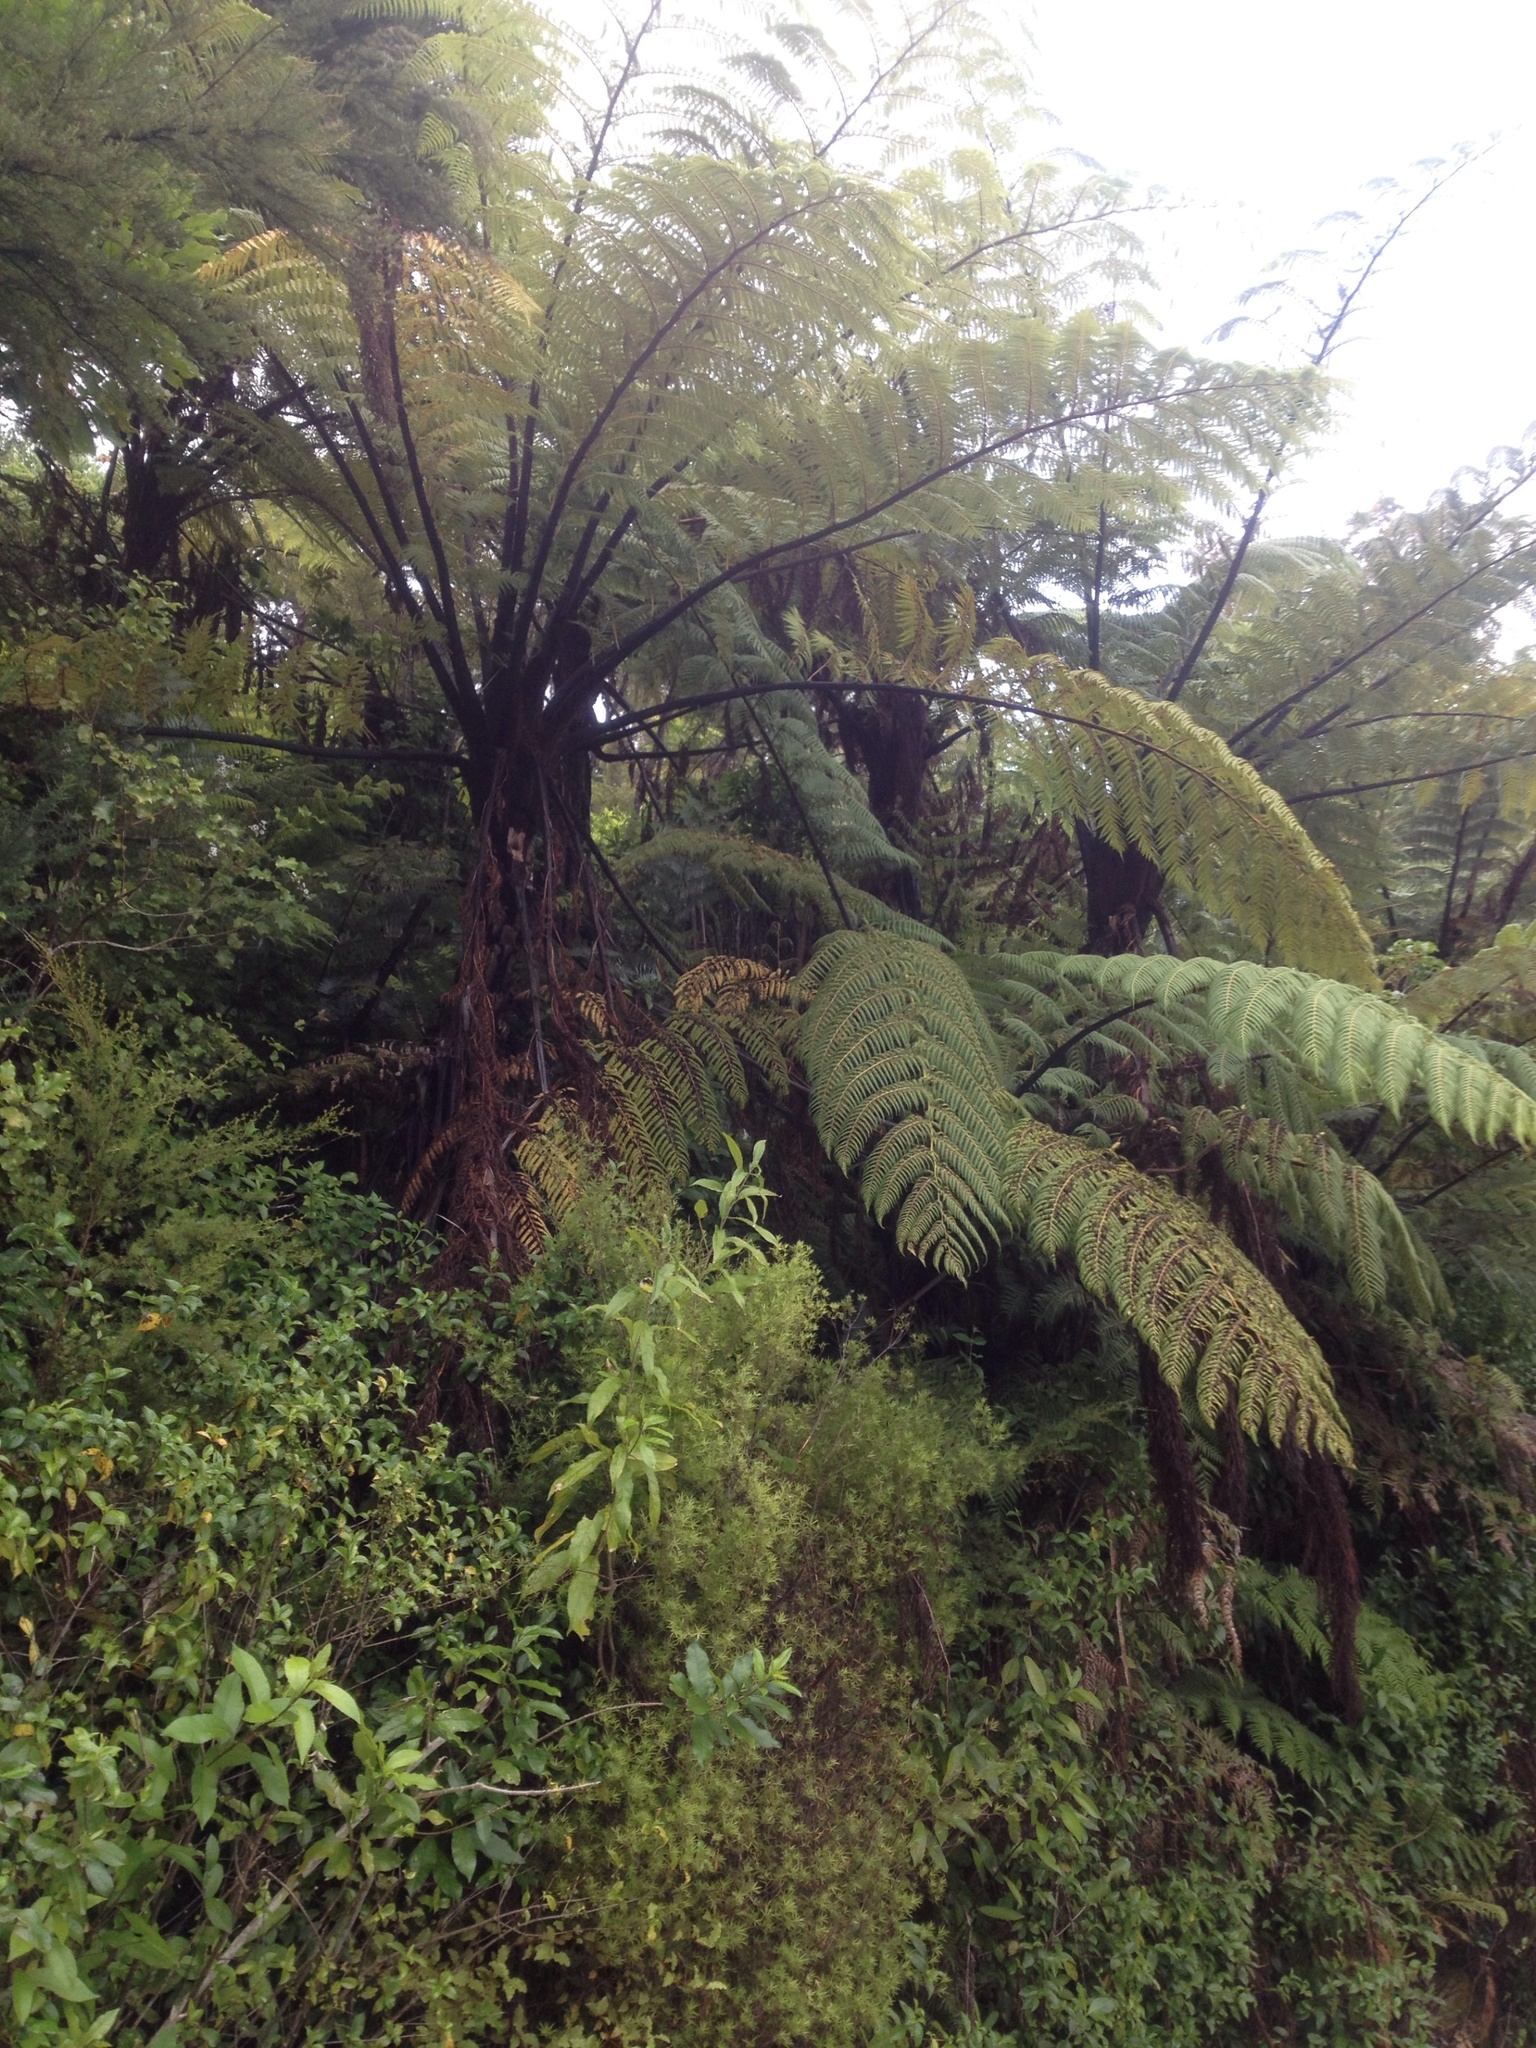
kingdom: Plantae
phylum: Tracheophyta
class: Polypodiopsida
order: Cyatheales
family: Cyatheaceae
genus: Sphaeropteris
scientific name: Sphaeropteris medullaris
